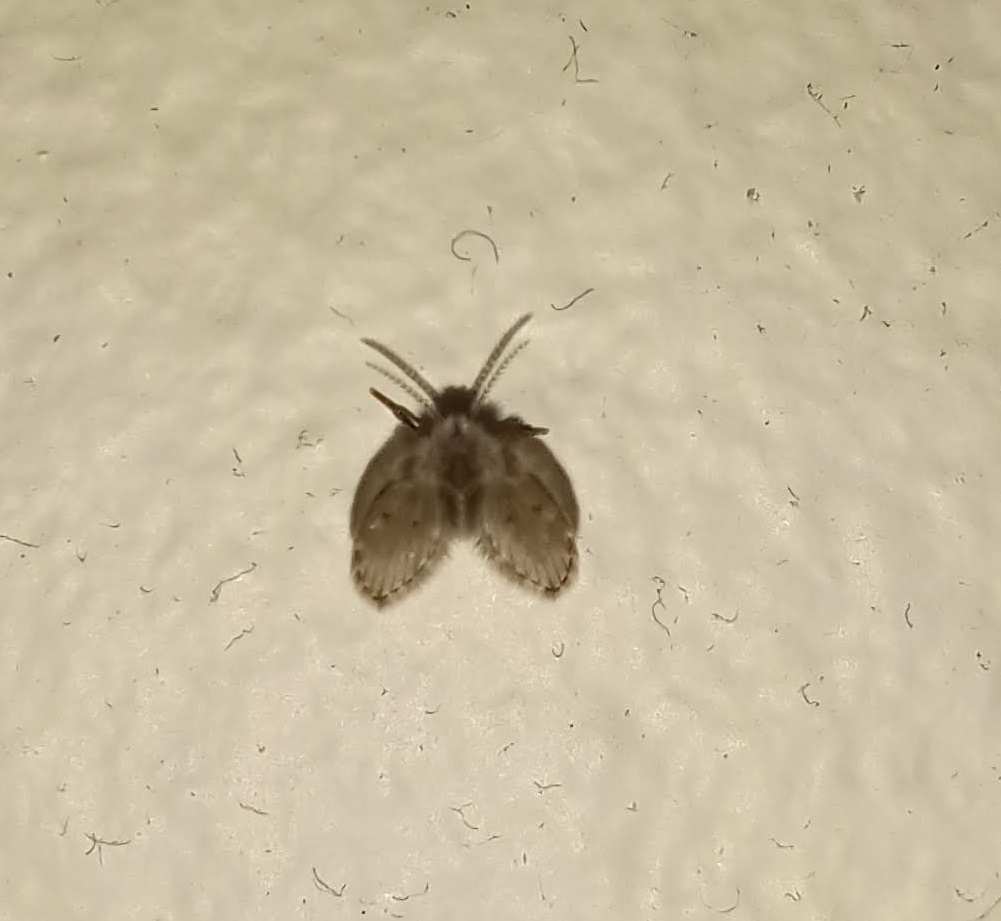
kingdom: Animalia
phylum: Arthropoda
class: Insecta
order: Diptera
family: Psychodidae
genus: Clogmia
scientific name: Clogmia albipunctatus
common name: White-spotted moth fly
